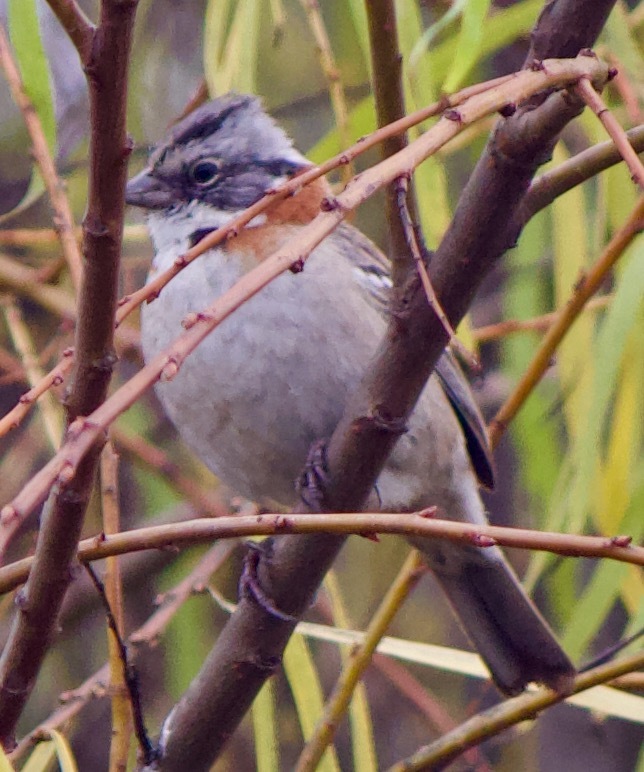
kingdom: Animalia
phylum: Chordata
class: Aves
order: Passeriformes
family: Passerellidae
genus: Zonotrichia
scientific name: Zonotrichia capensis
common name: Rufous-collared sparrow
